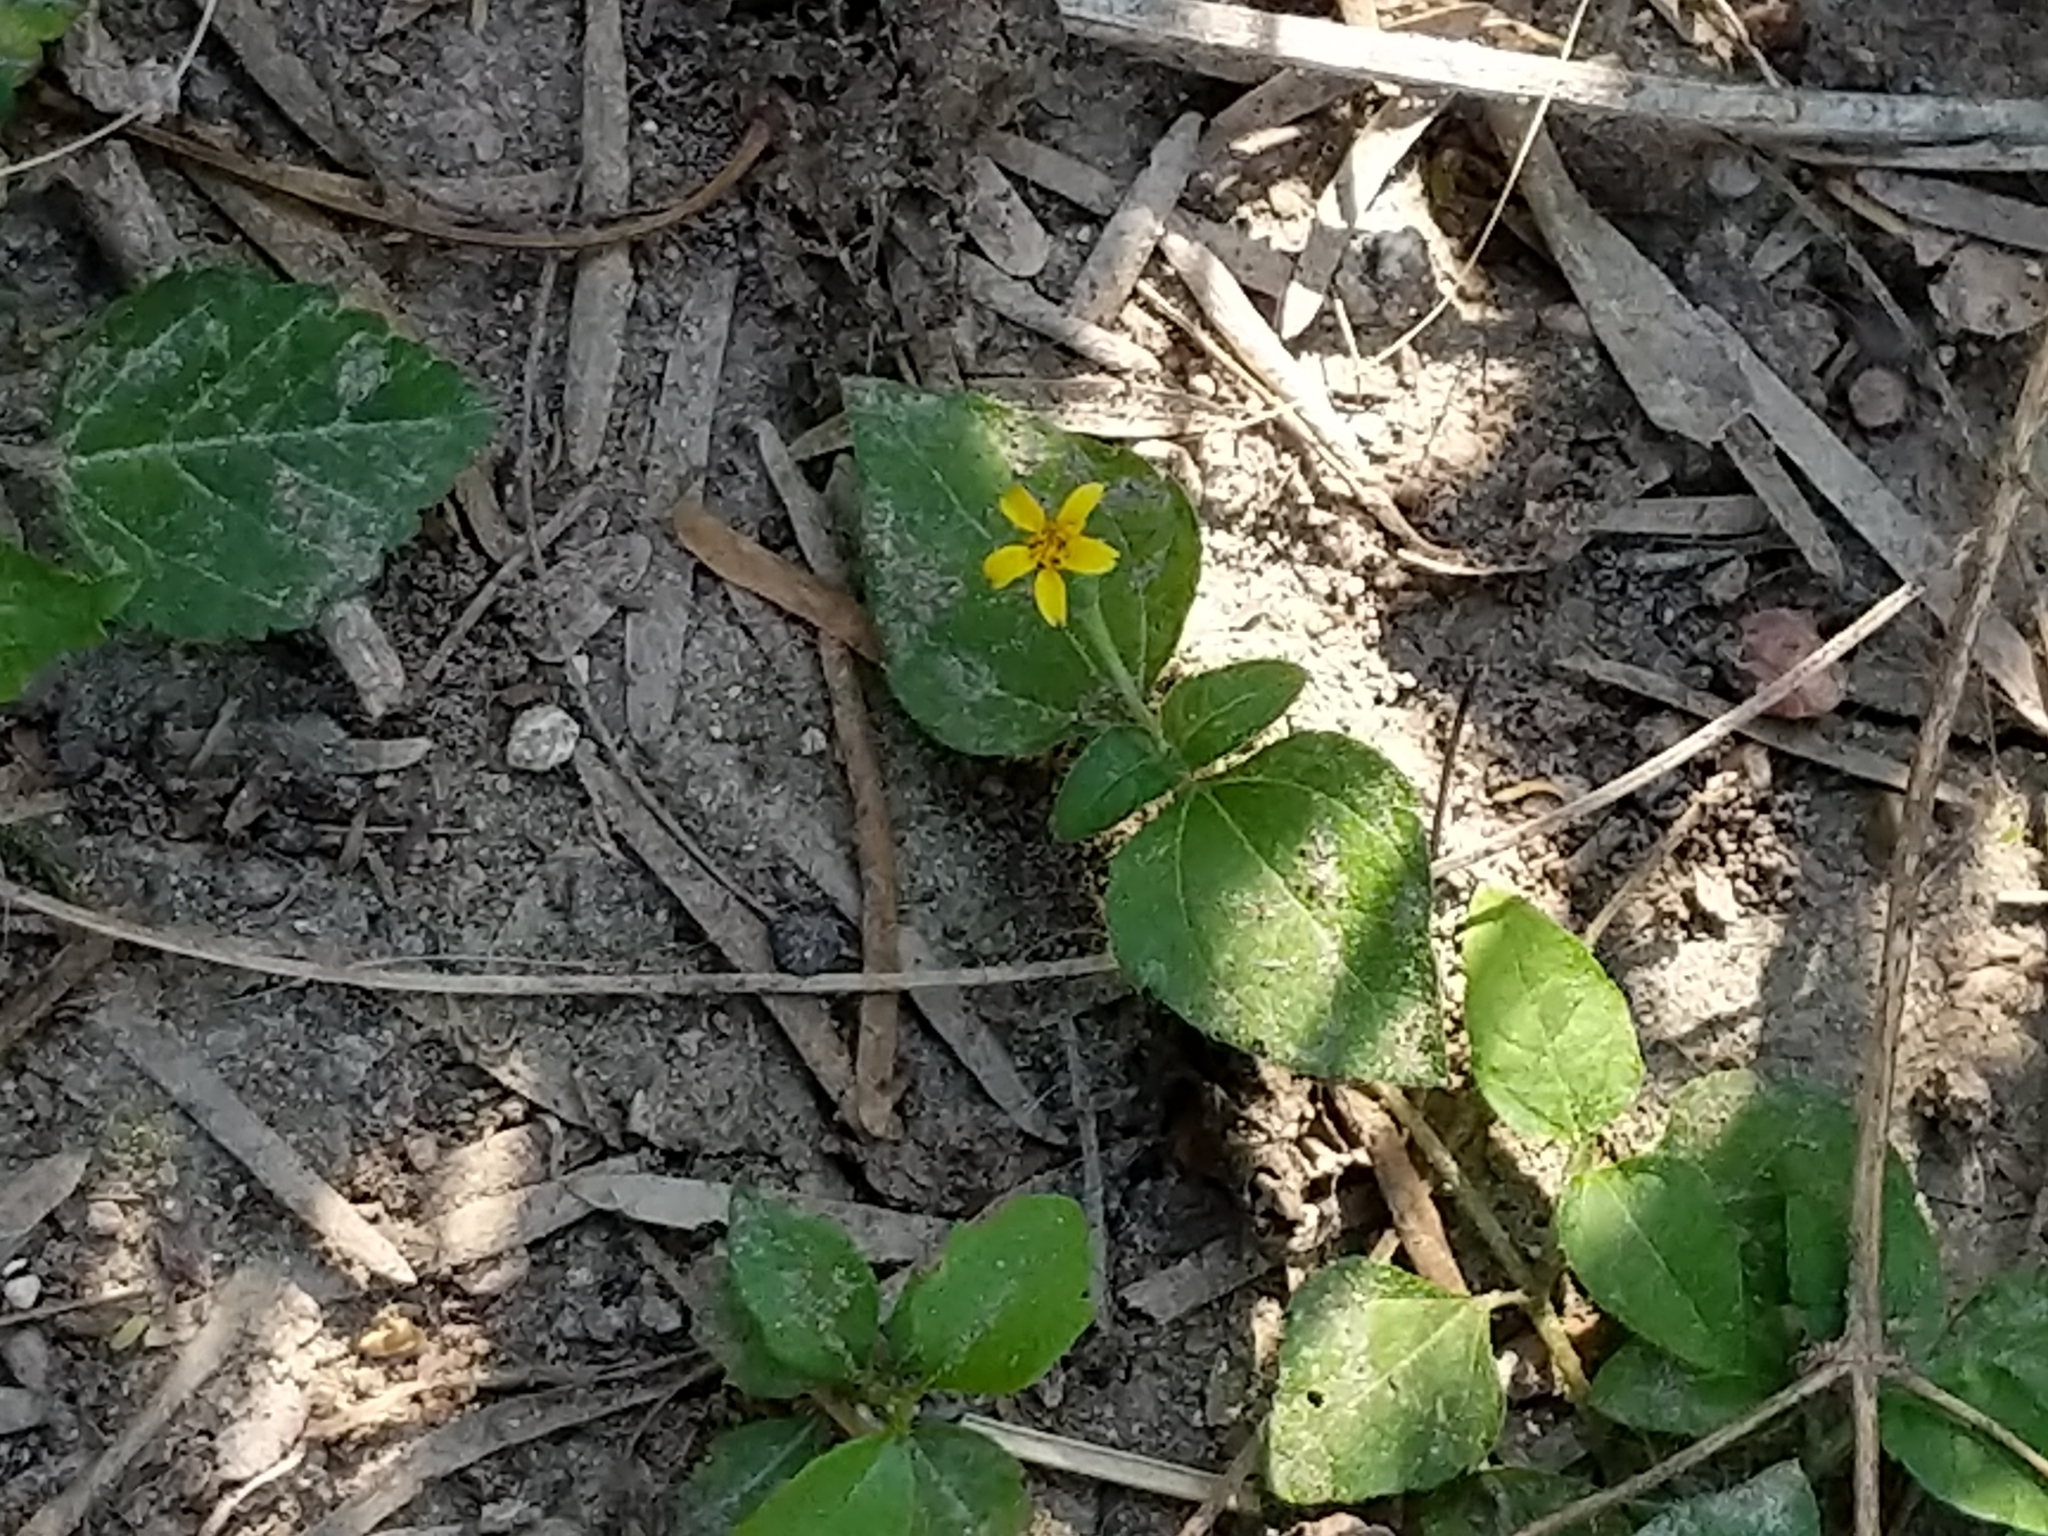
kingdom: Plantae
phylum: Tracheophyta
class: Magnoliopsida
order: Asterales
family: Asteraceae
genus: Calyptocarpus
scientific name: Calyptocarpus vialis
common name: Straggler daisy
